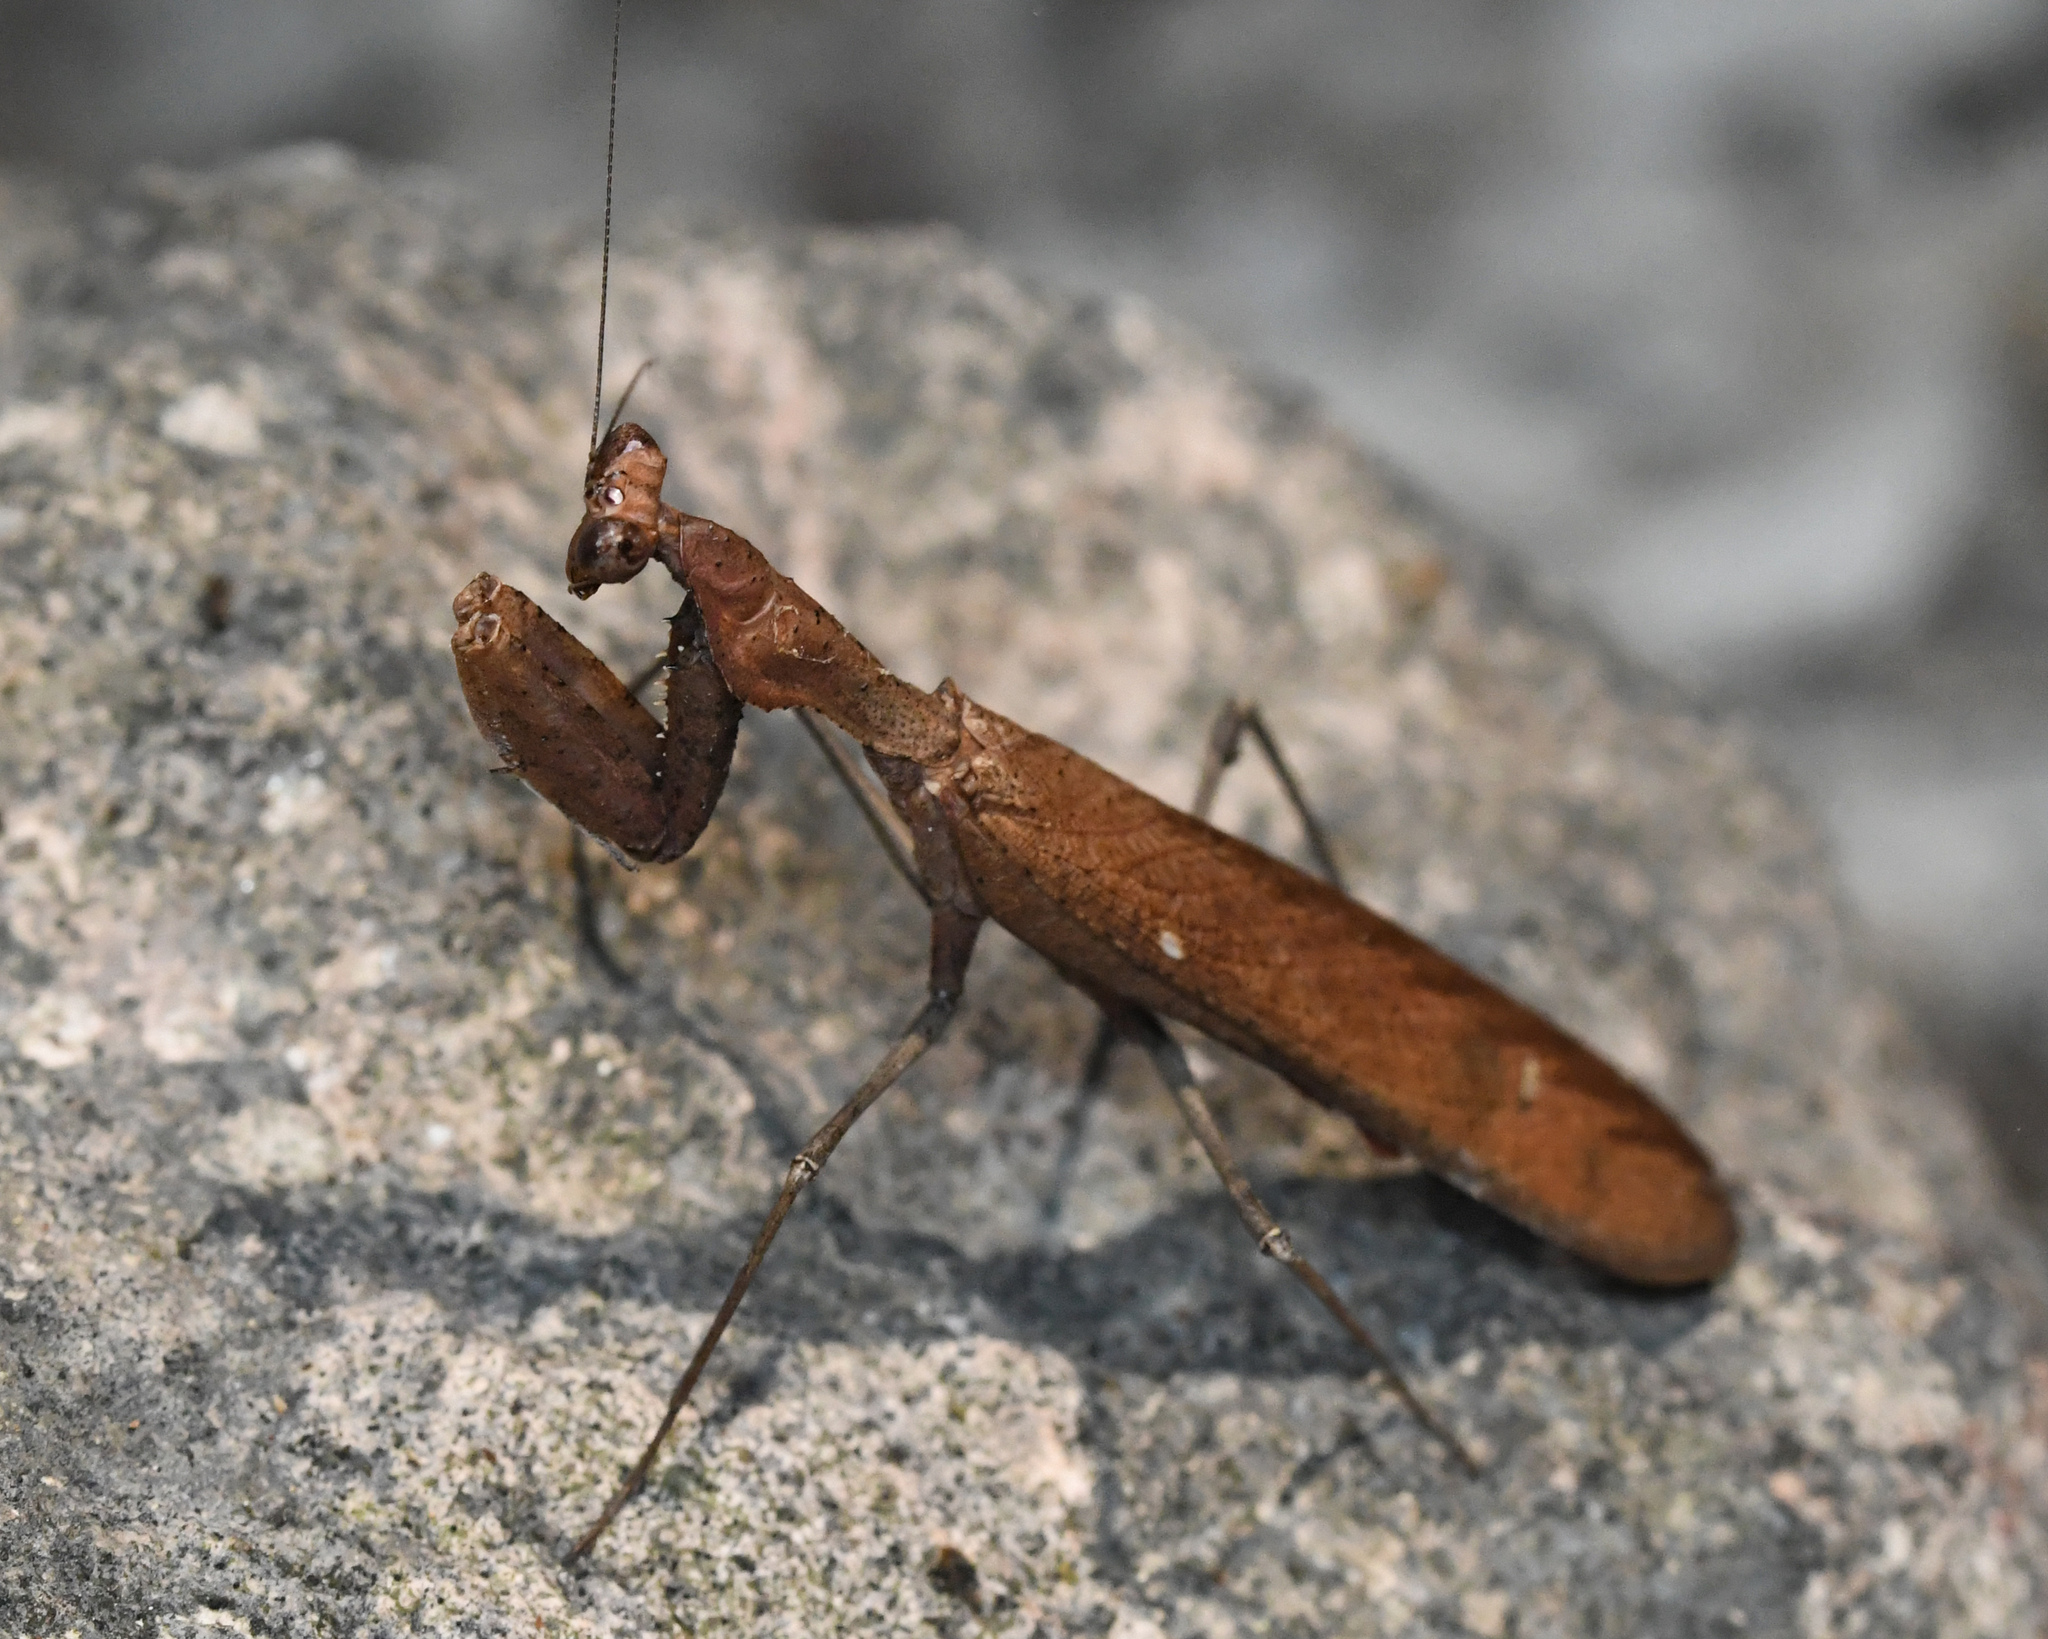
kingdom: Animalia
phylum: Arthropoda
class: Insecta
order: Mantodea
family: Epaphroditidae
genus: Epaphrodita
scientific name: Epaphrodita musarum
